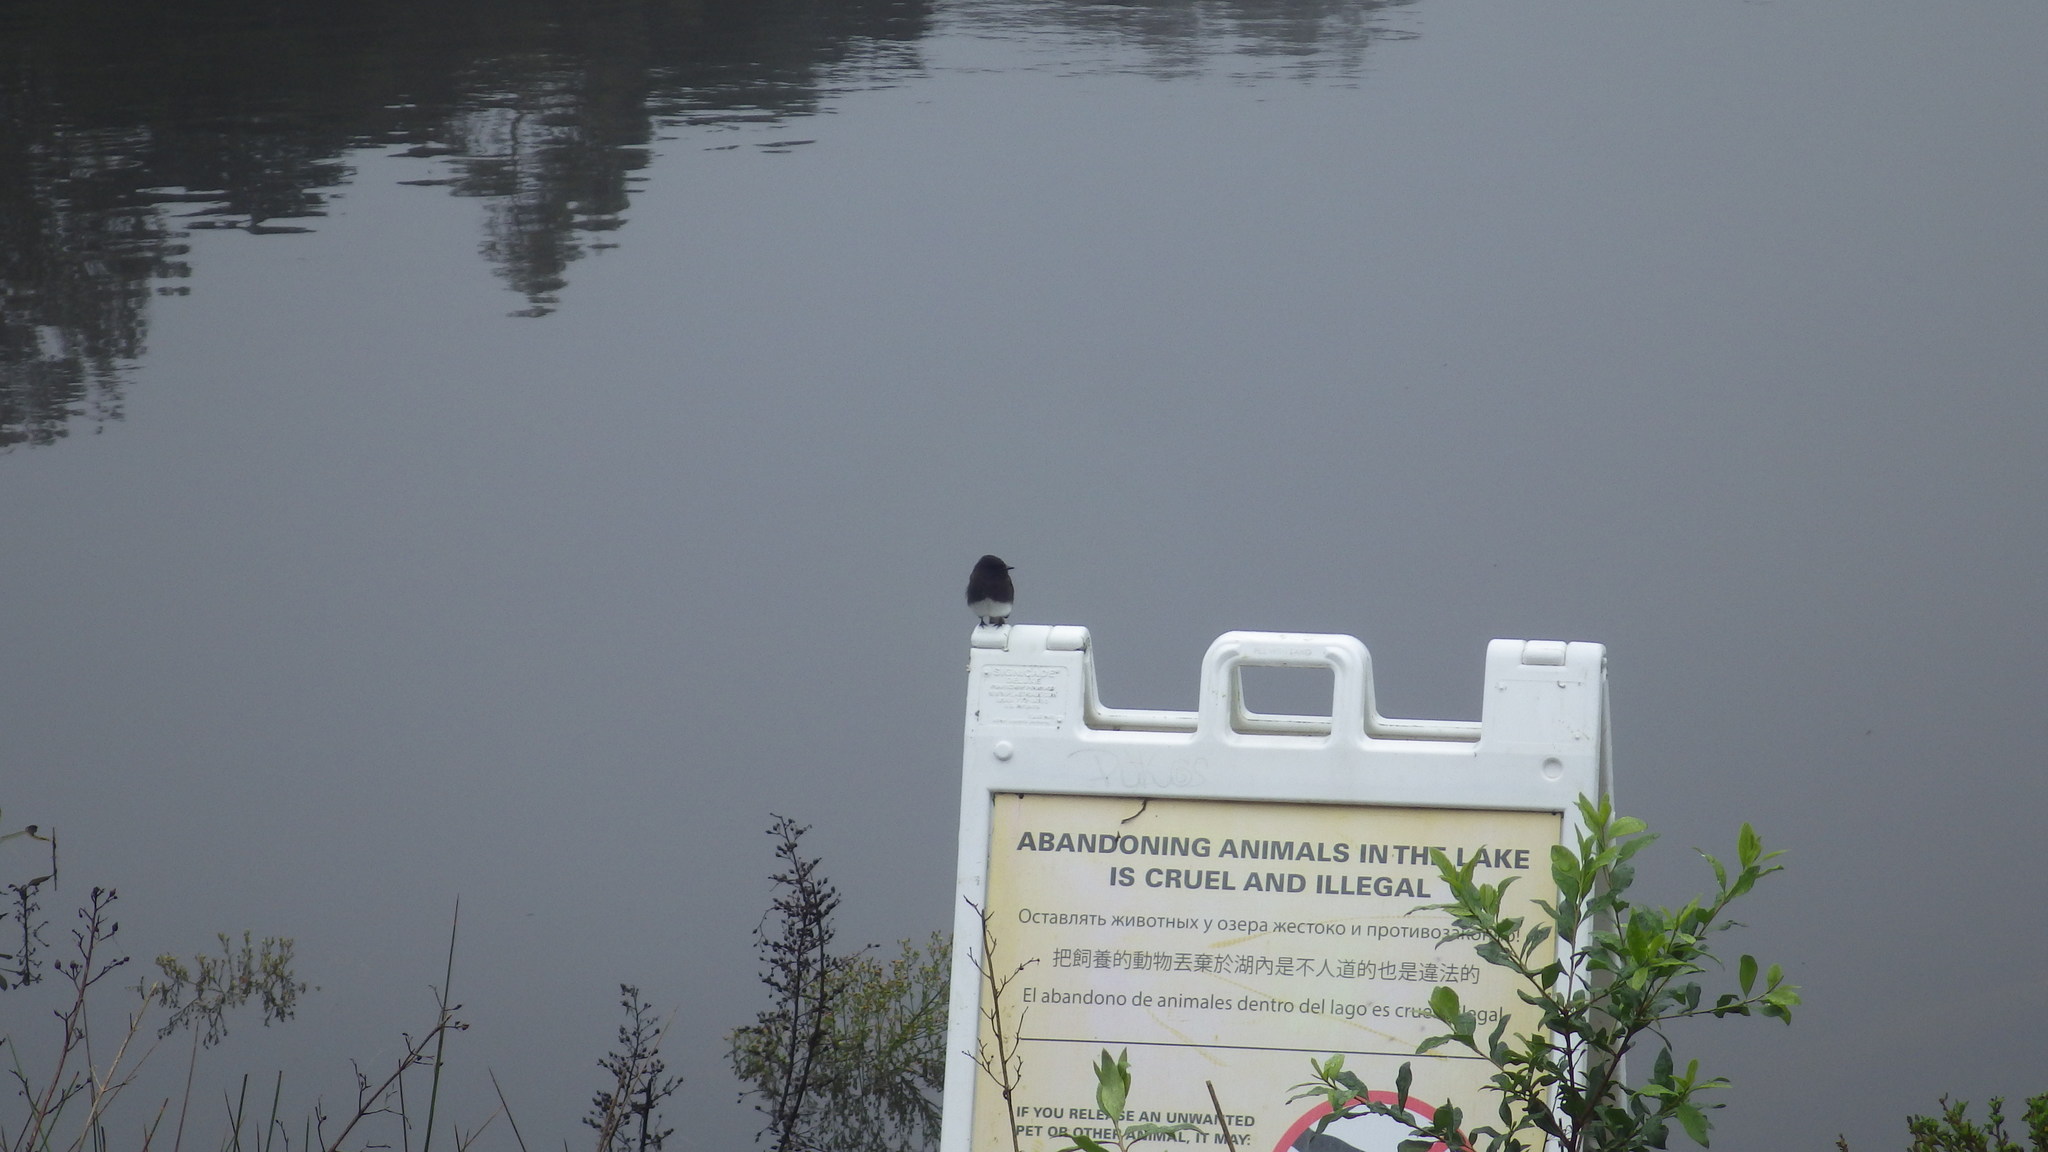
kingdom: Animalia
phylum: Chordata
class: Aves
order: Passeriformes
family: Tyrannidae
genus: Sayornis
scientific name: Sayornis nigricans
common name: Black phoebe
